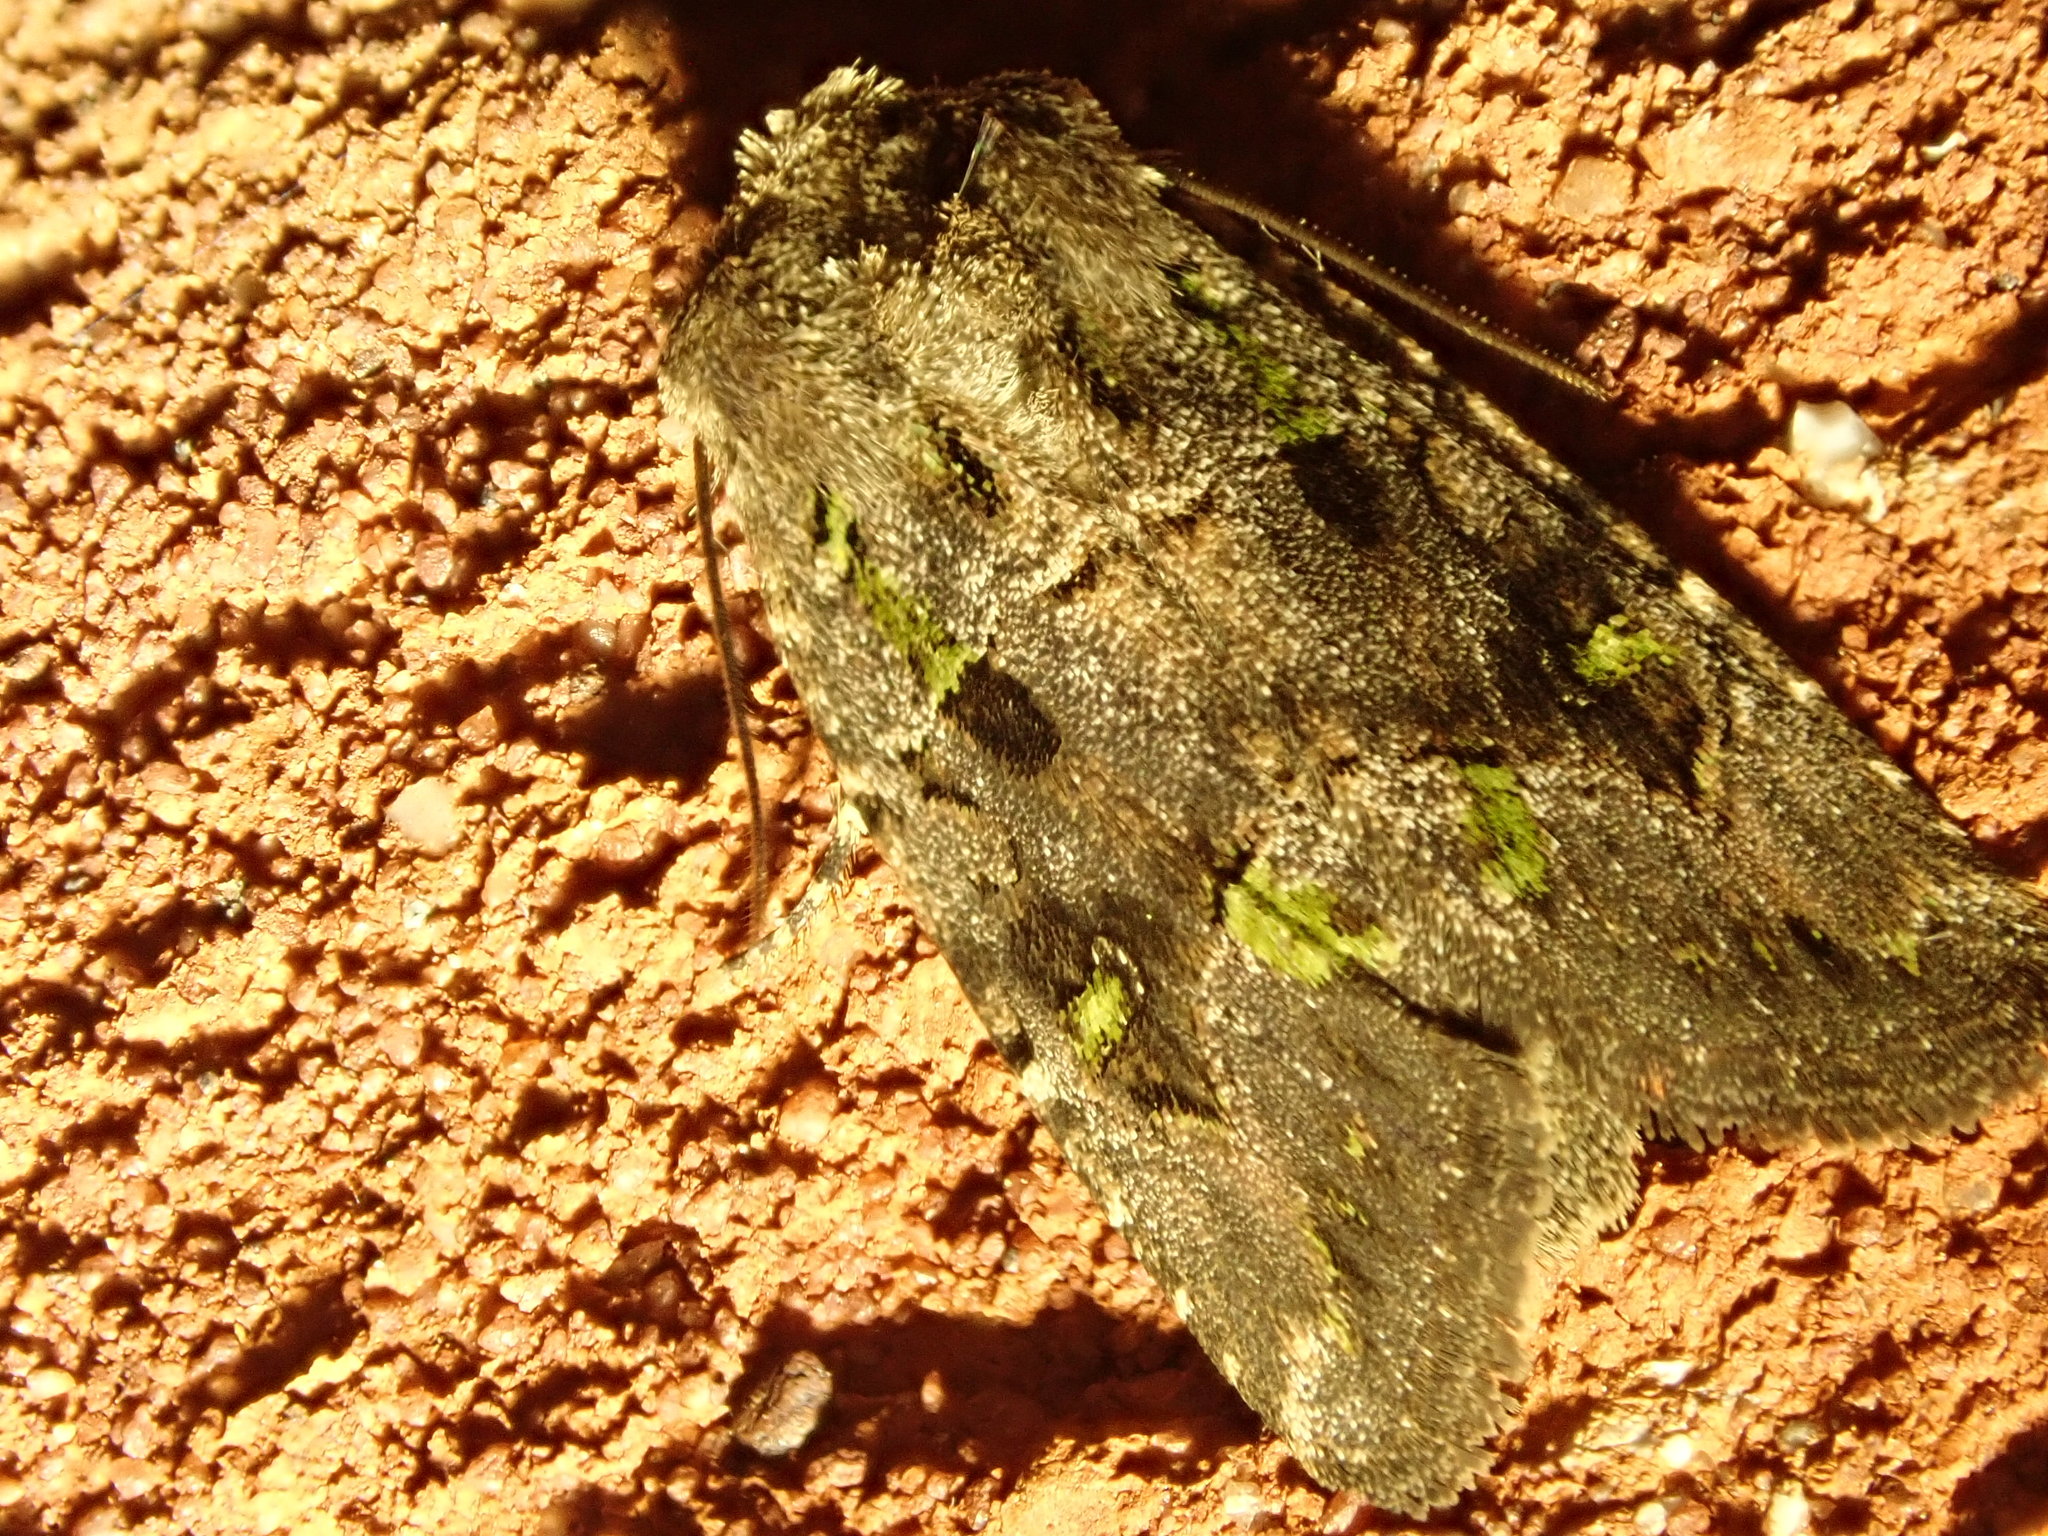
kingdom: Animalia
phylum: Arthropoda
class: Insecta
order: Lepidoptera
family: Noctuidae
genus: Lacinipolia
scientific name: Lacinipolia renigera
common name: Kidney-spotted minor
